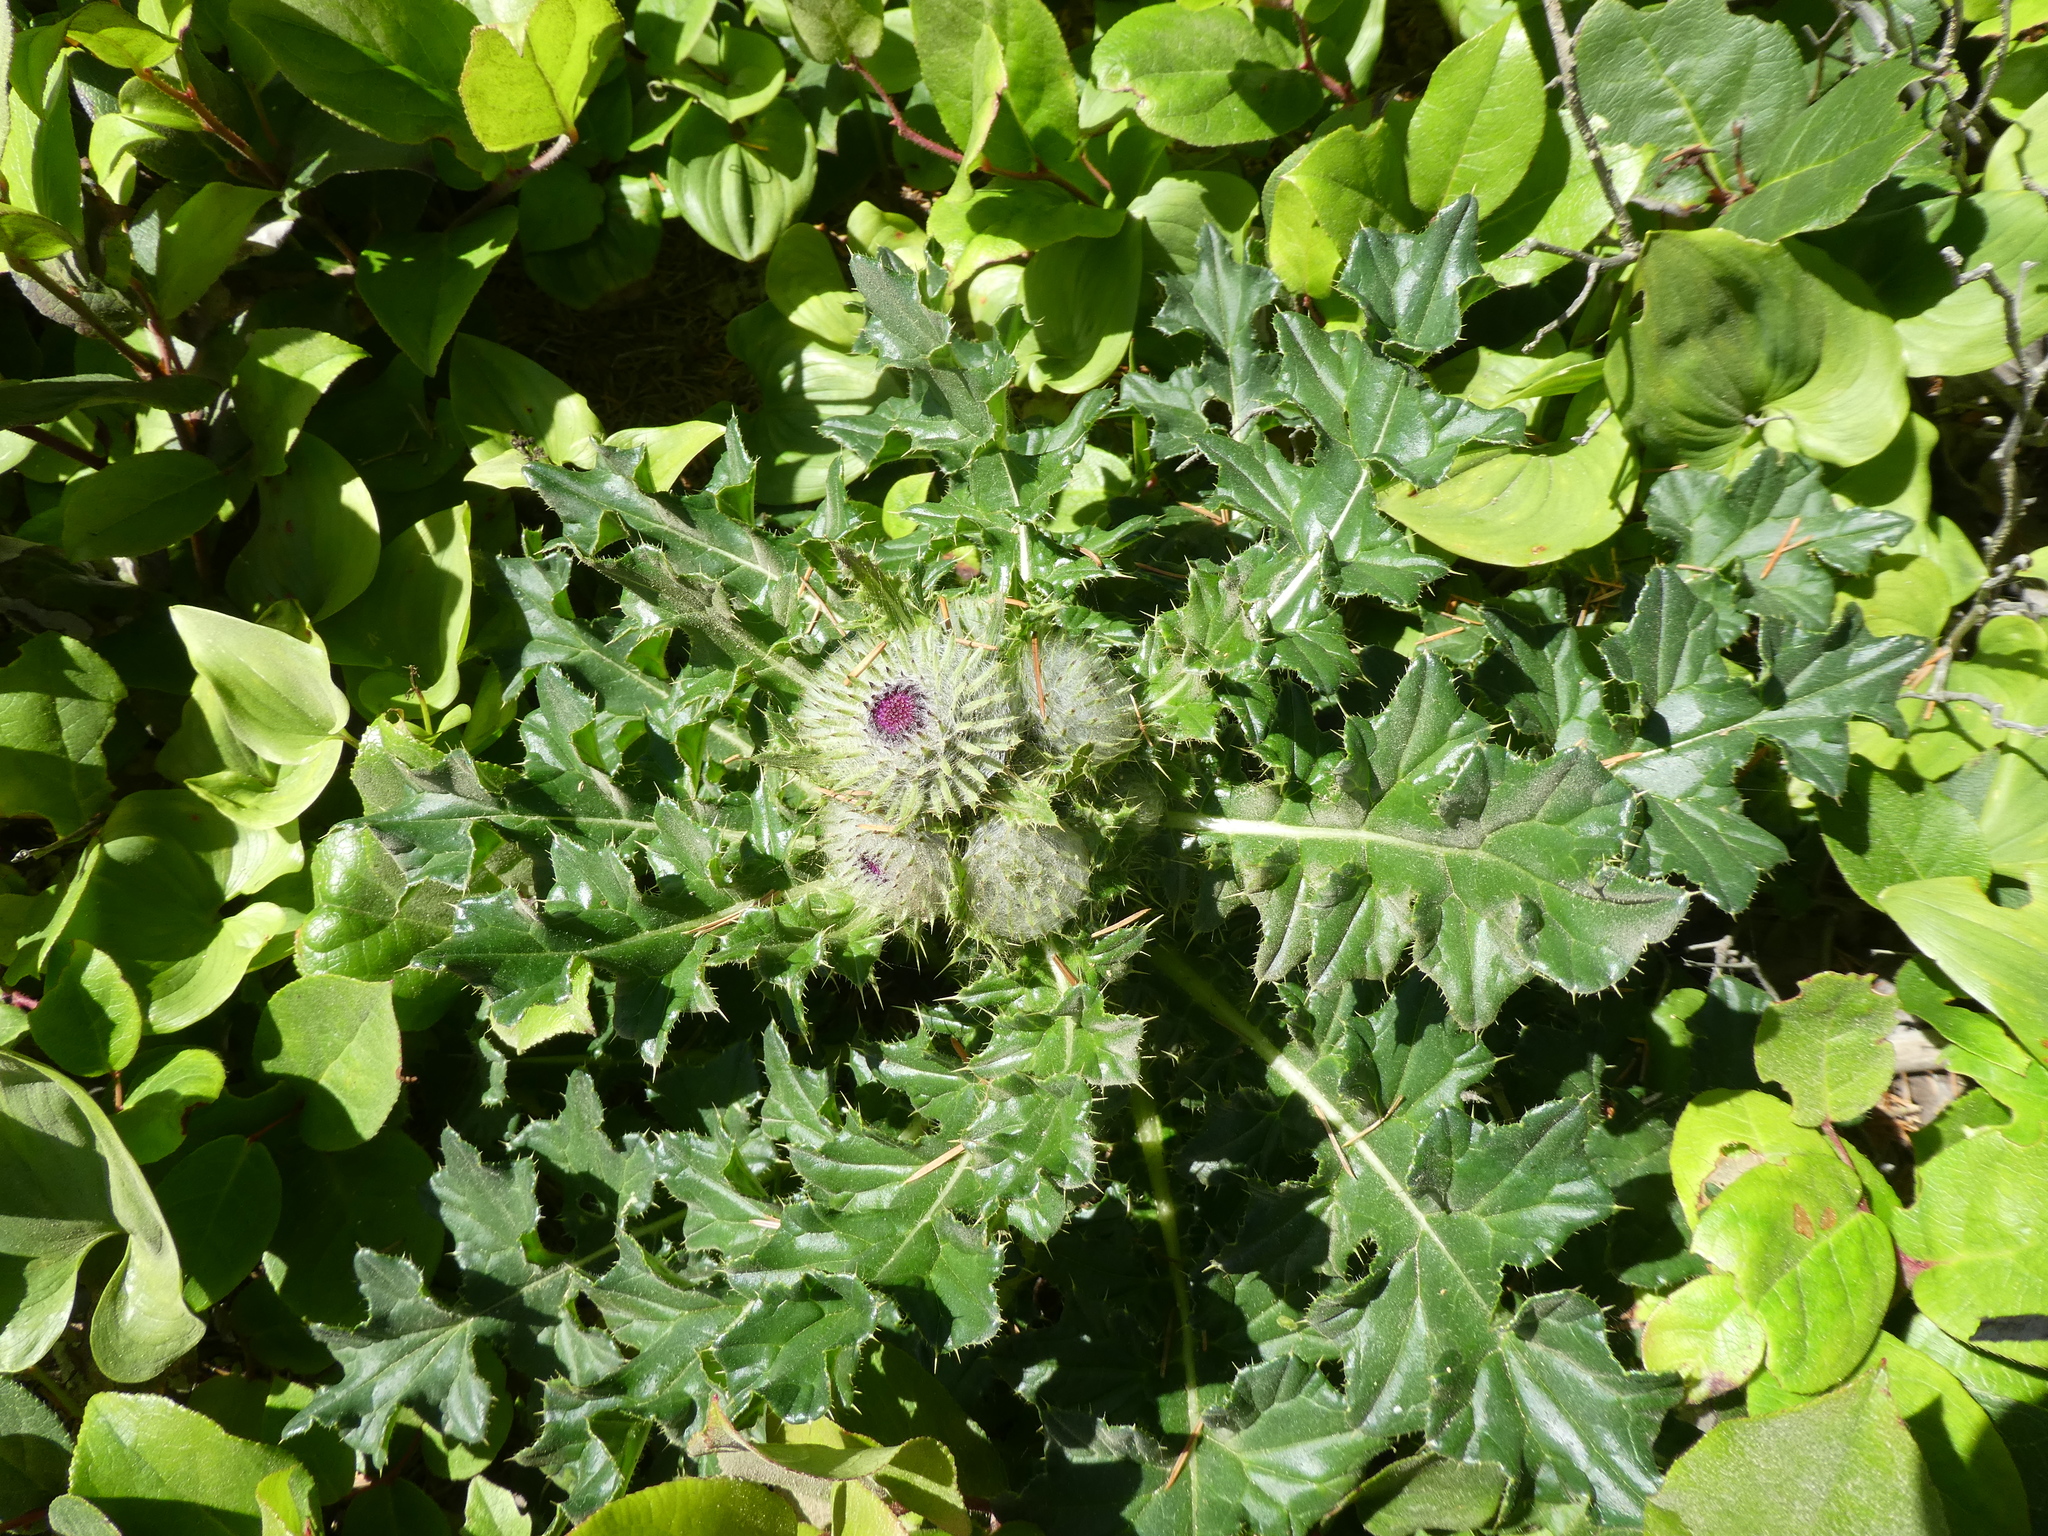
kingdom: Plantae
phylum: Tracheophyta
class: Magnoliopsida
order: Asterales
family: Asteraceae
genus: Cirsium
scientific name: Cirsium edule
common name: Indian thistle
